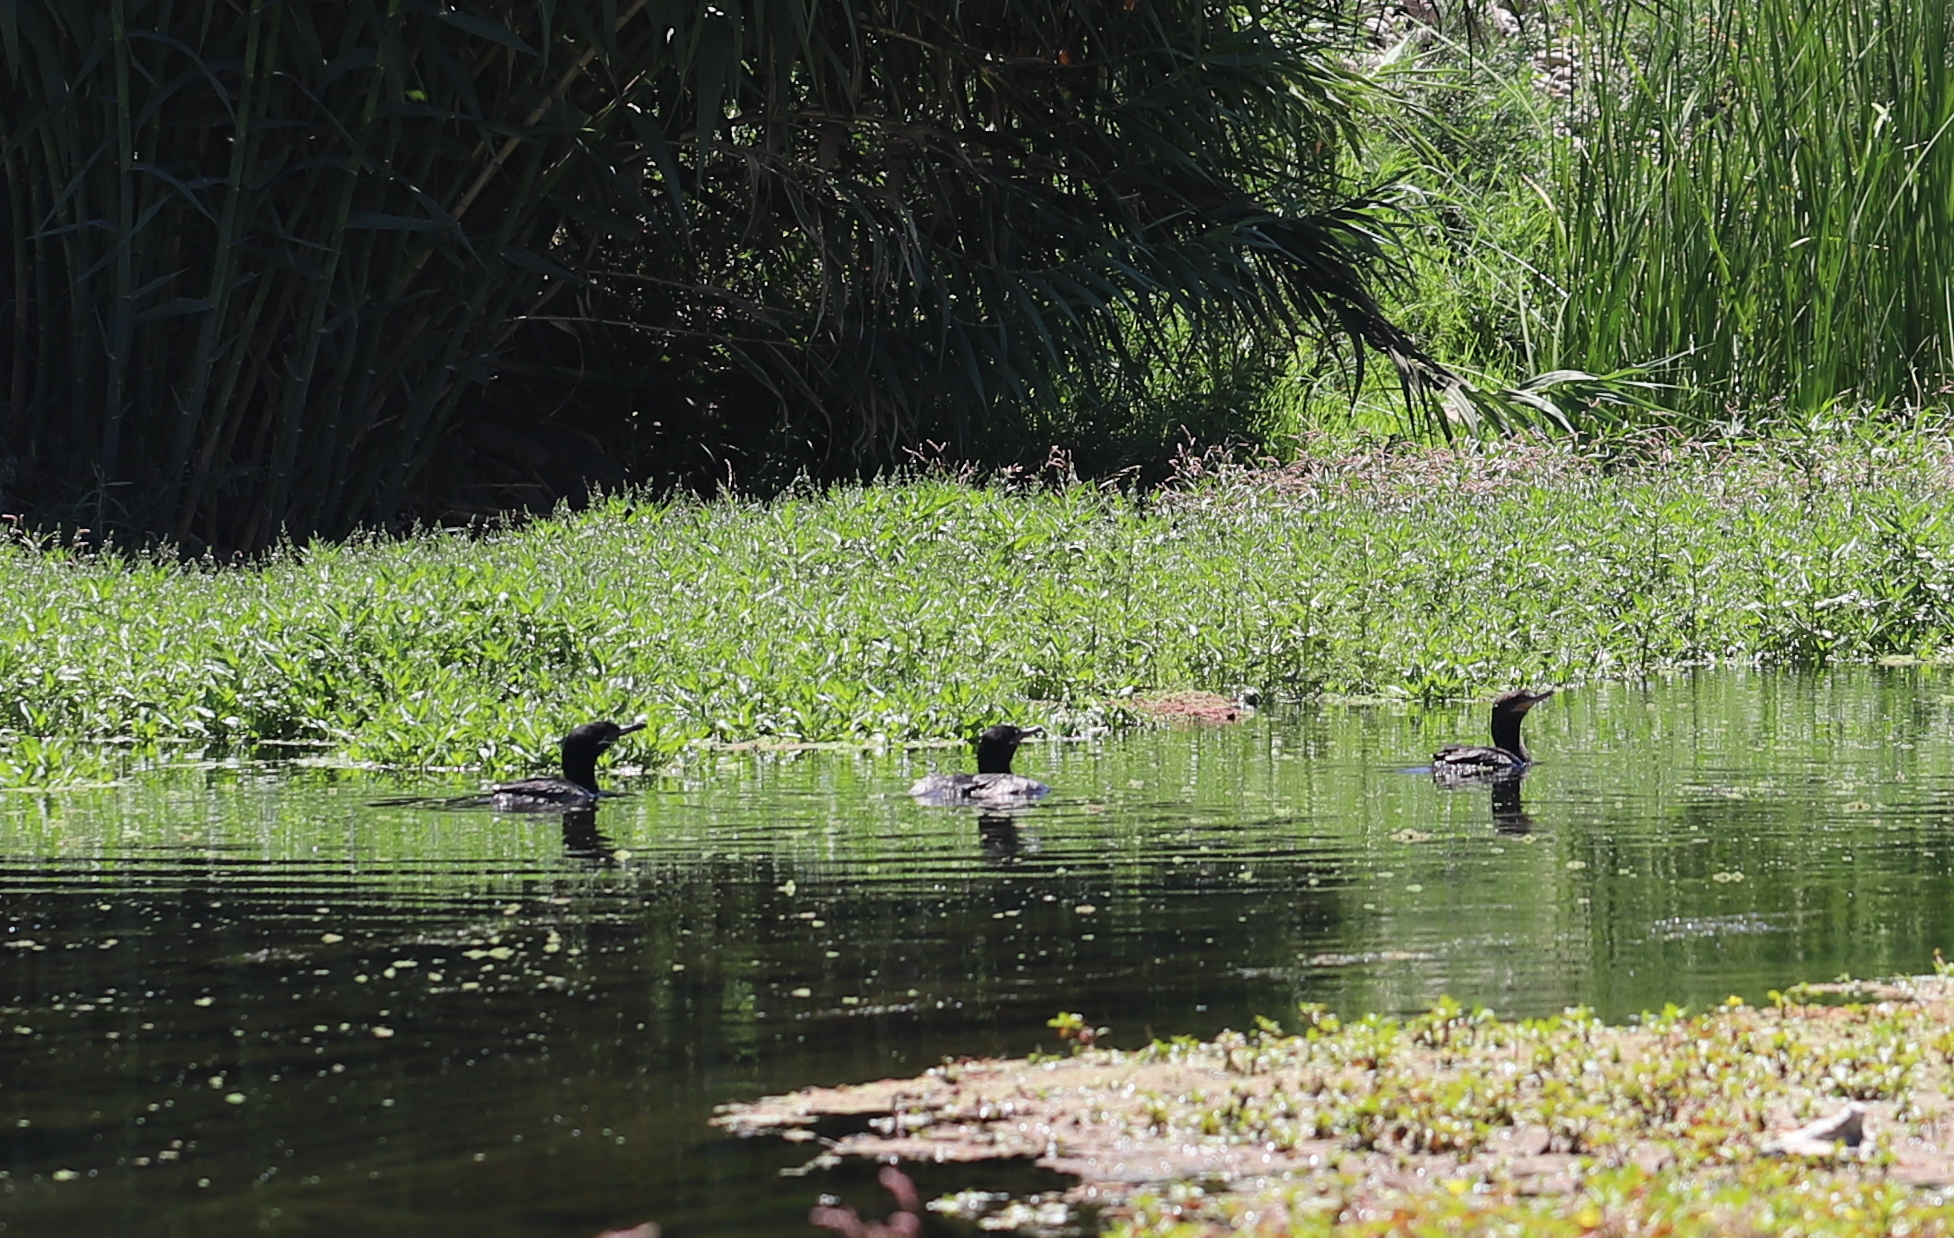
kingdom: Animalia
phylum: Chordata
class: Aves
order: Suliformes
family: Phalacrocoracidae
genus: Phalacrocorax
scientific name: Phalacrocorax brasilianus
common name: Neotropic cormorant
